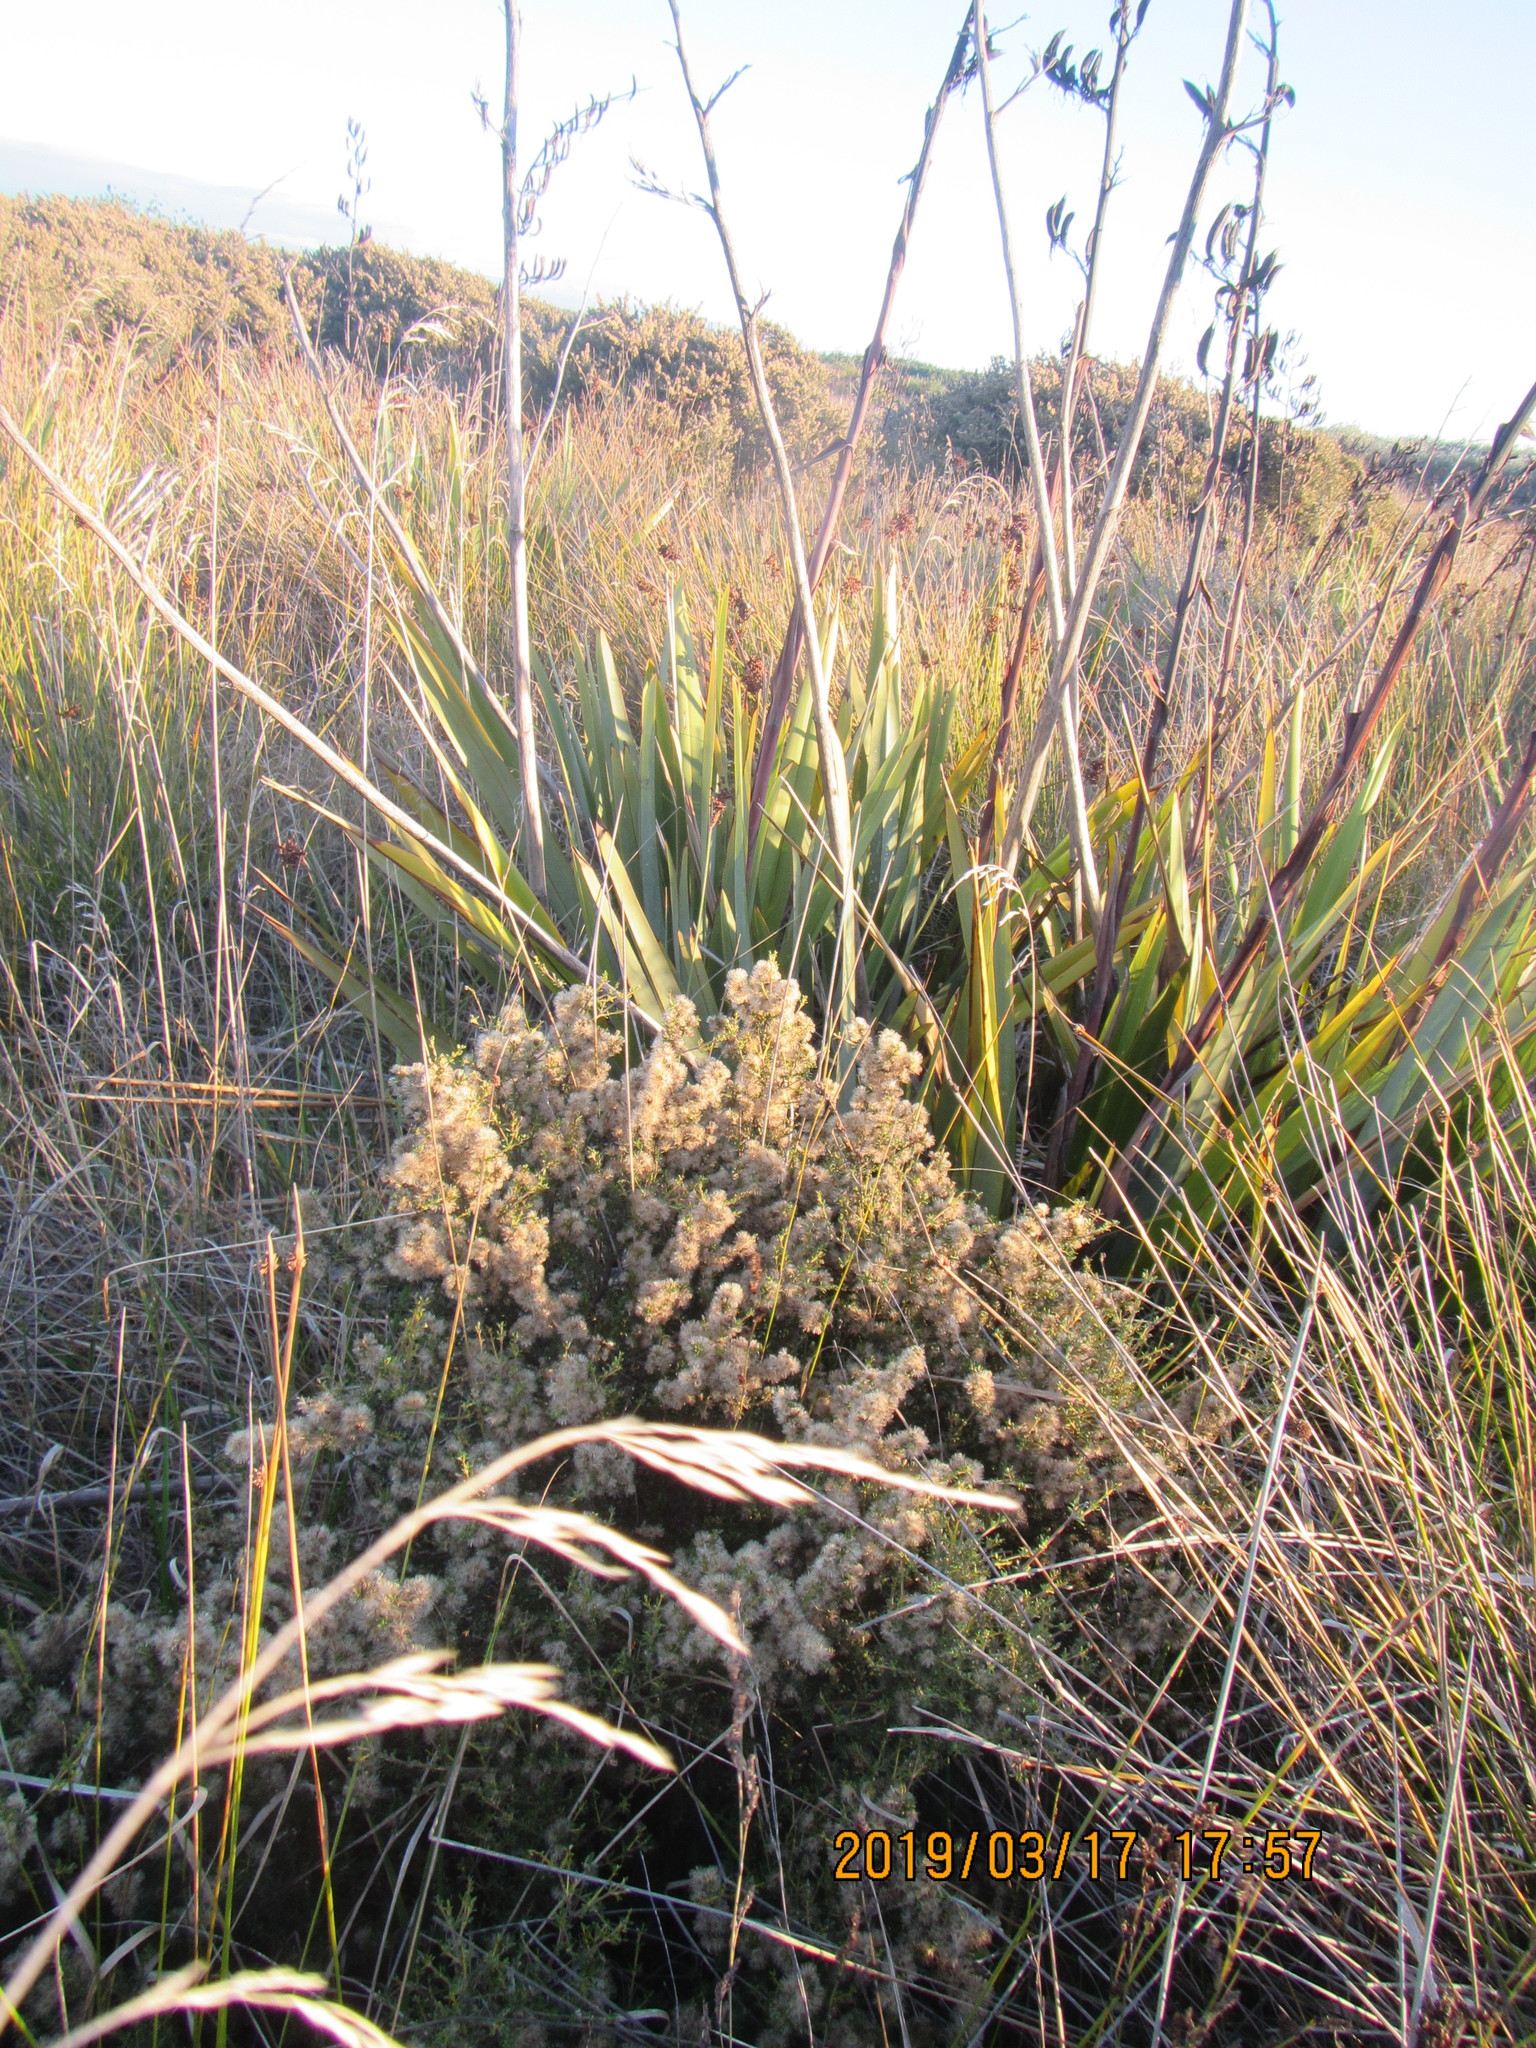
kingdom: Plantae
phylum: Tracheophyta
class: Magnoliopsida
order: Asterales
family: Asteraceae
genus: Olearia
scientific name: Olearia solandri
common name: Coastal daisybush
